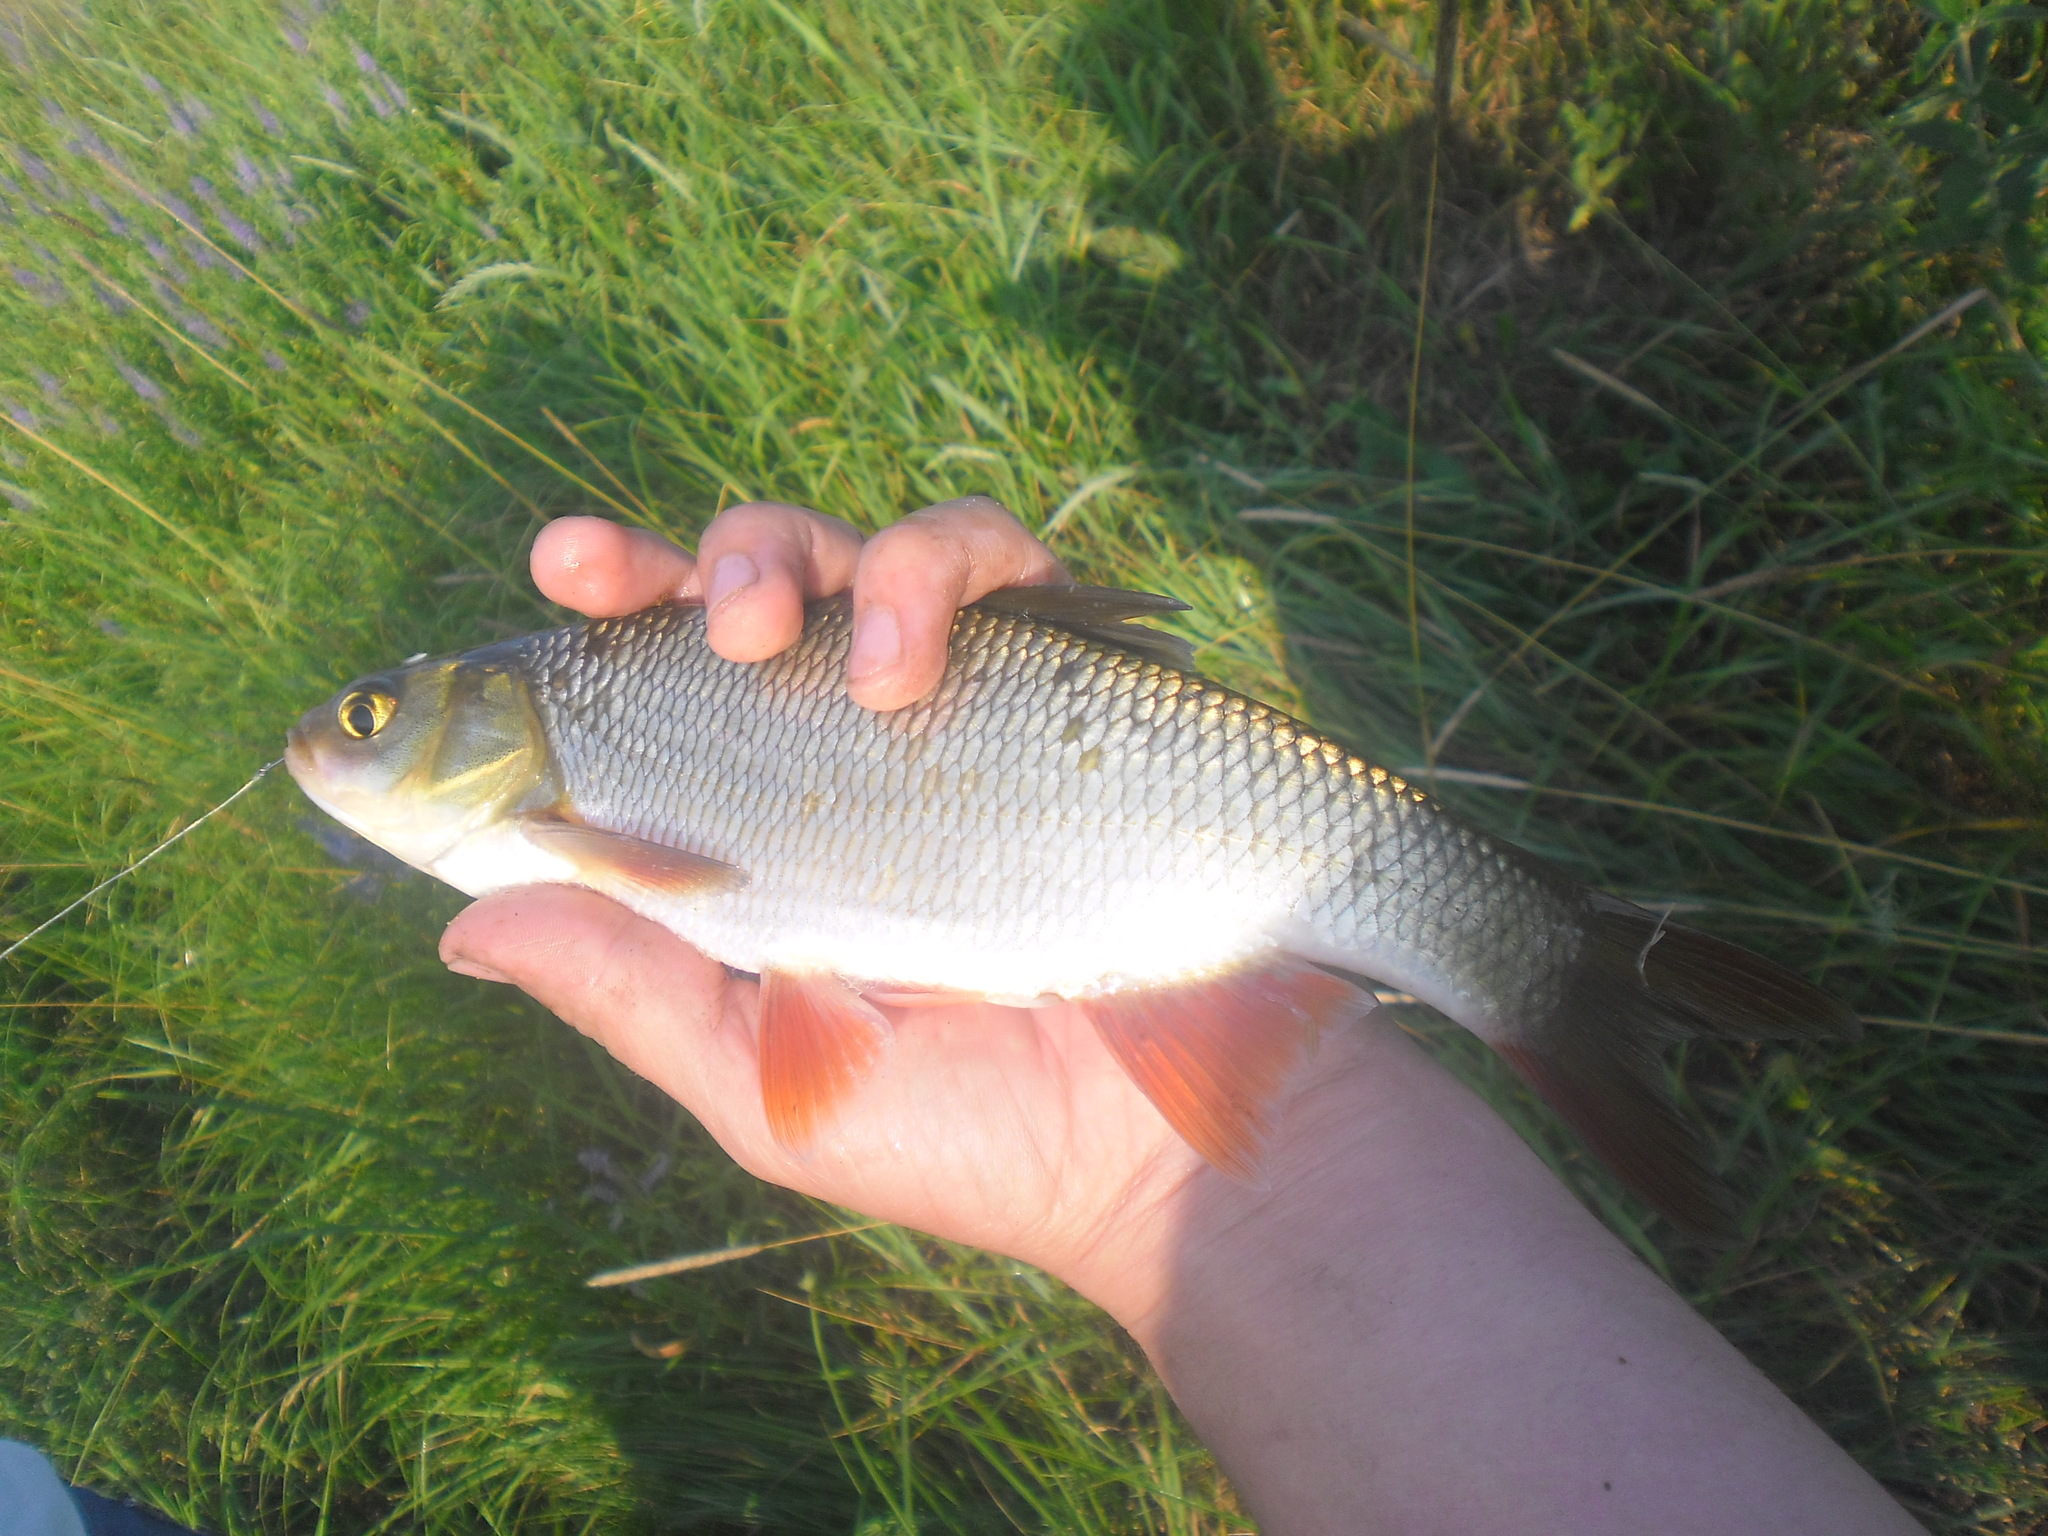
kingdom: Animalia
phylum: Chordata
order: Cypriniformes
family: Cyprinidae
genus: Leuciscus
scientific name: Leuciscus idus
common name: Ide
